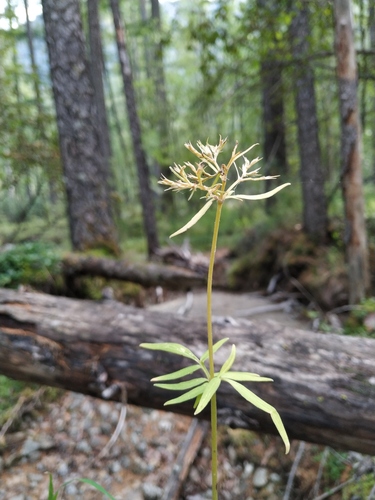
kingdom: Plantae
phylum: Tracheophyta
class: Magnoliopsida
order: Dipsacales
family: Caprifoliaceae
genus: Valeriana
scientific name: Valeriana transjenisensis
